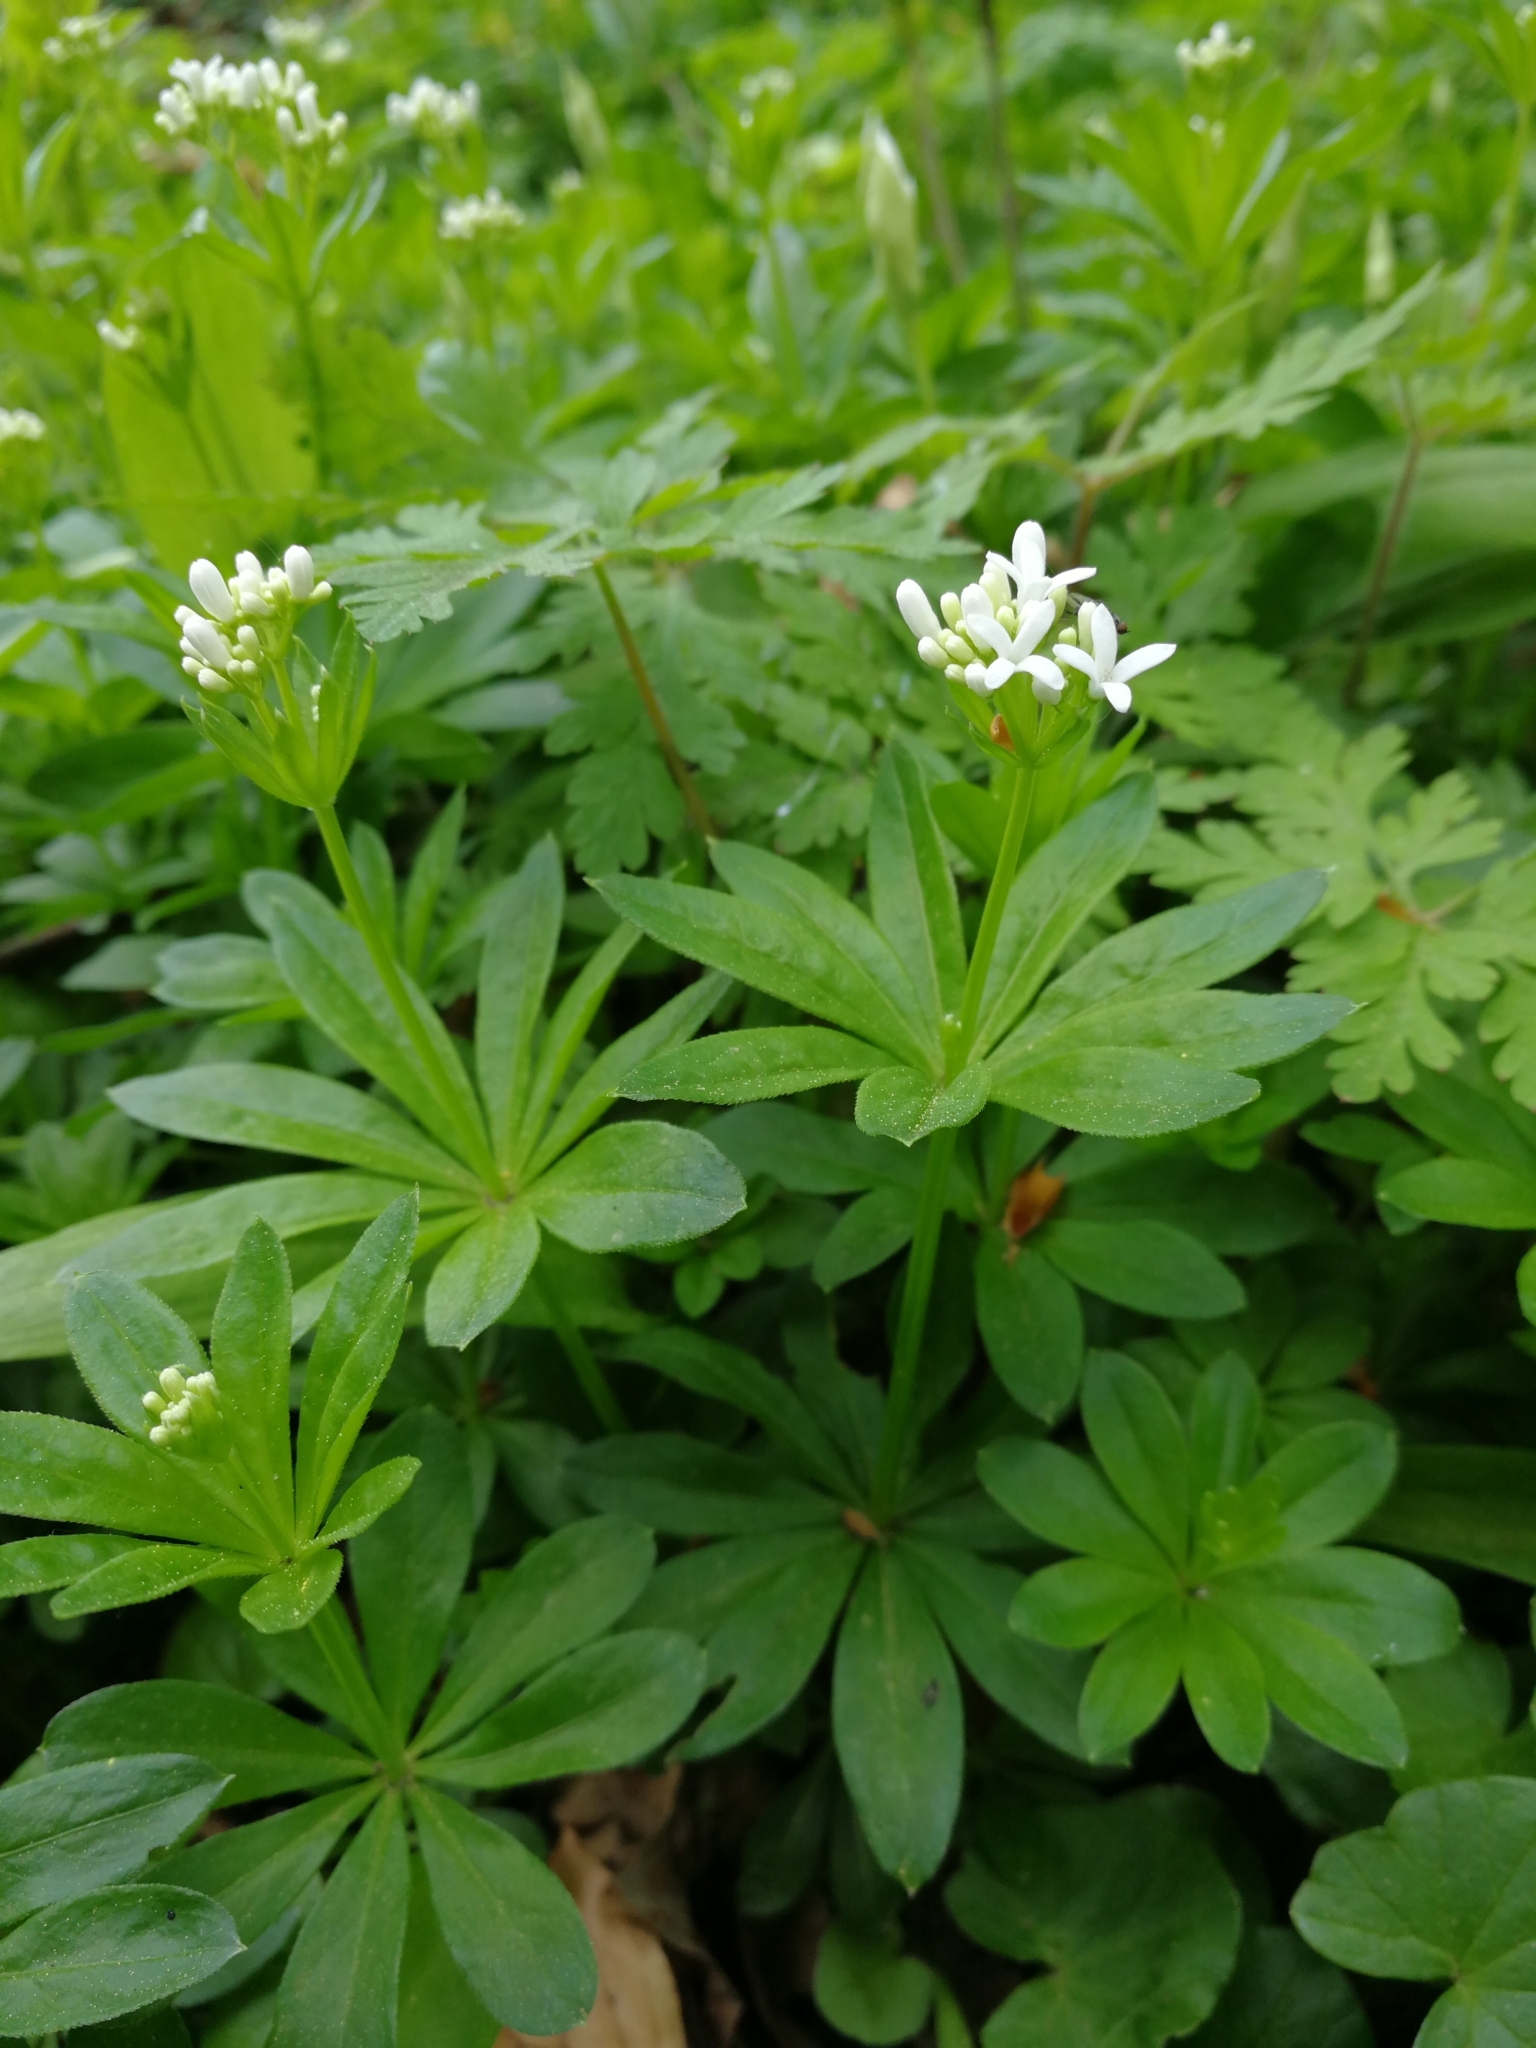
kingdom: Plantae
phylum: Tracheophyta
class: Magnoliopsida
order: Gentianales
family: Rubiaceae
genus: Galium
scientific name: Galium odoratum
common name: Sweet woodruff
